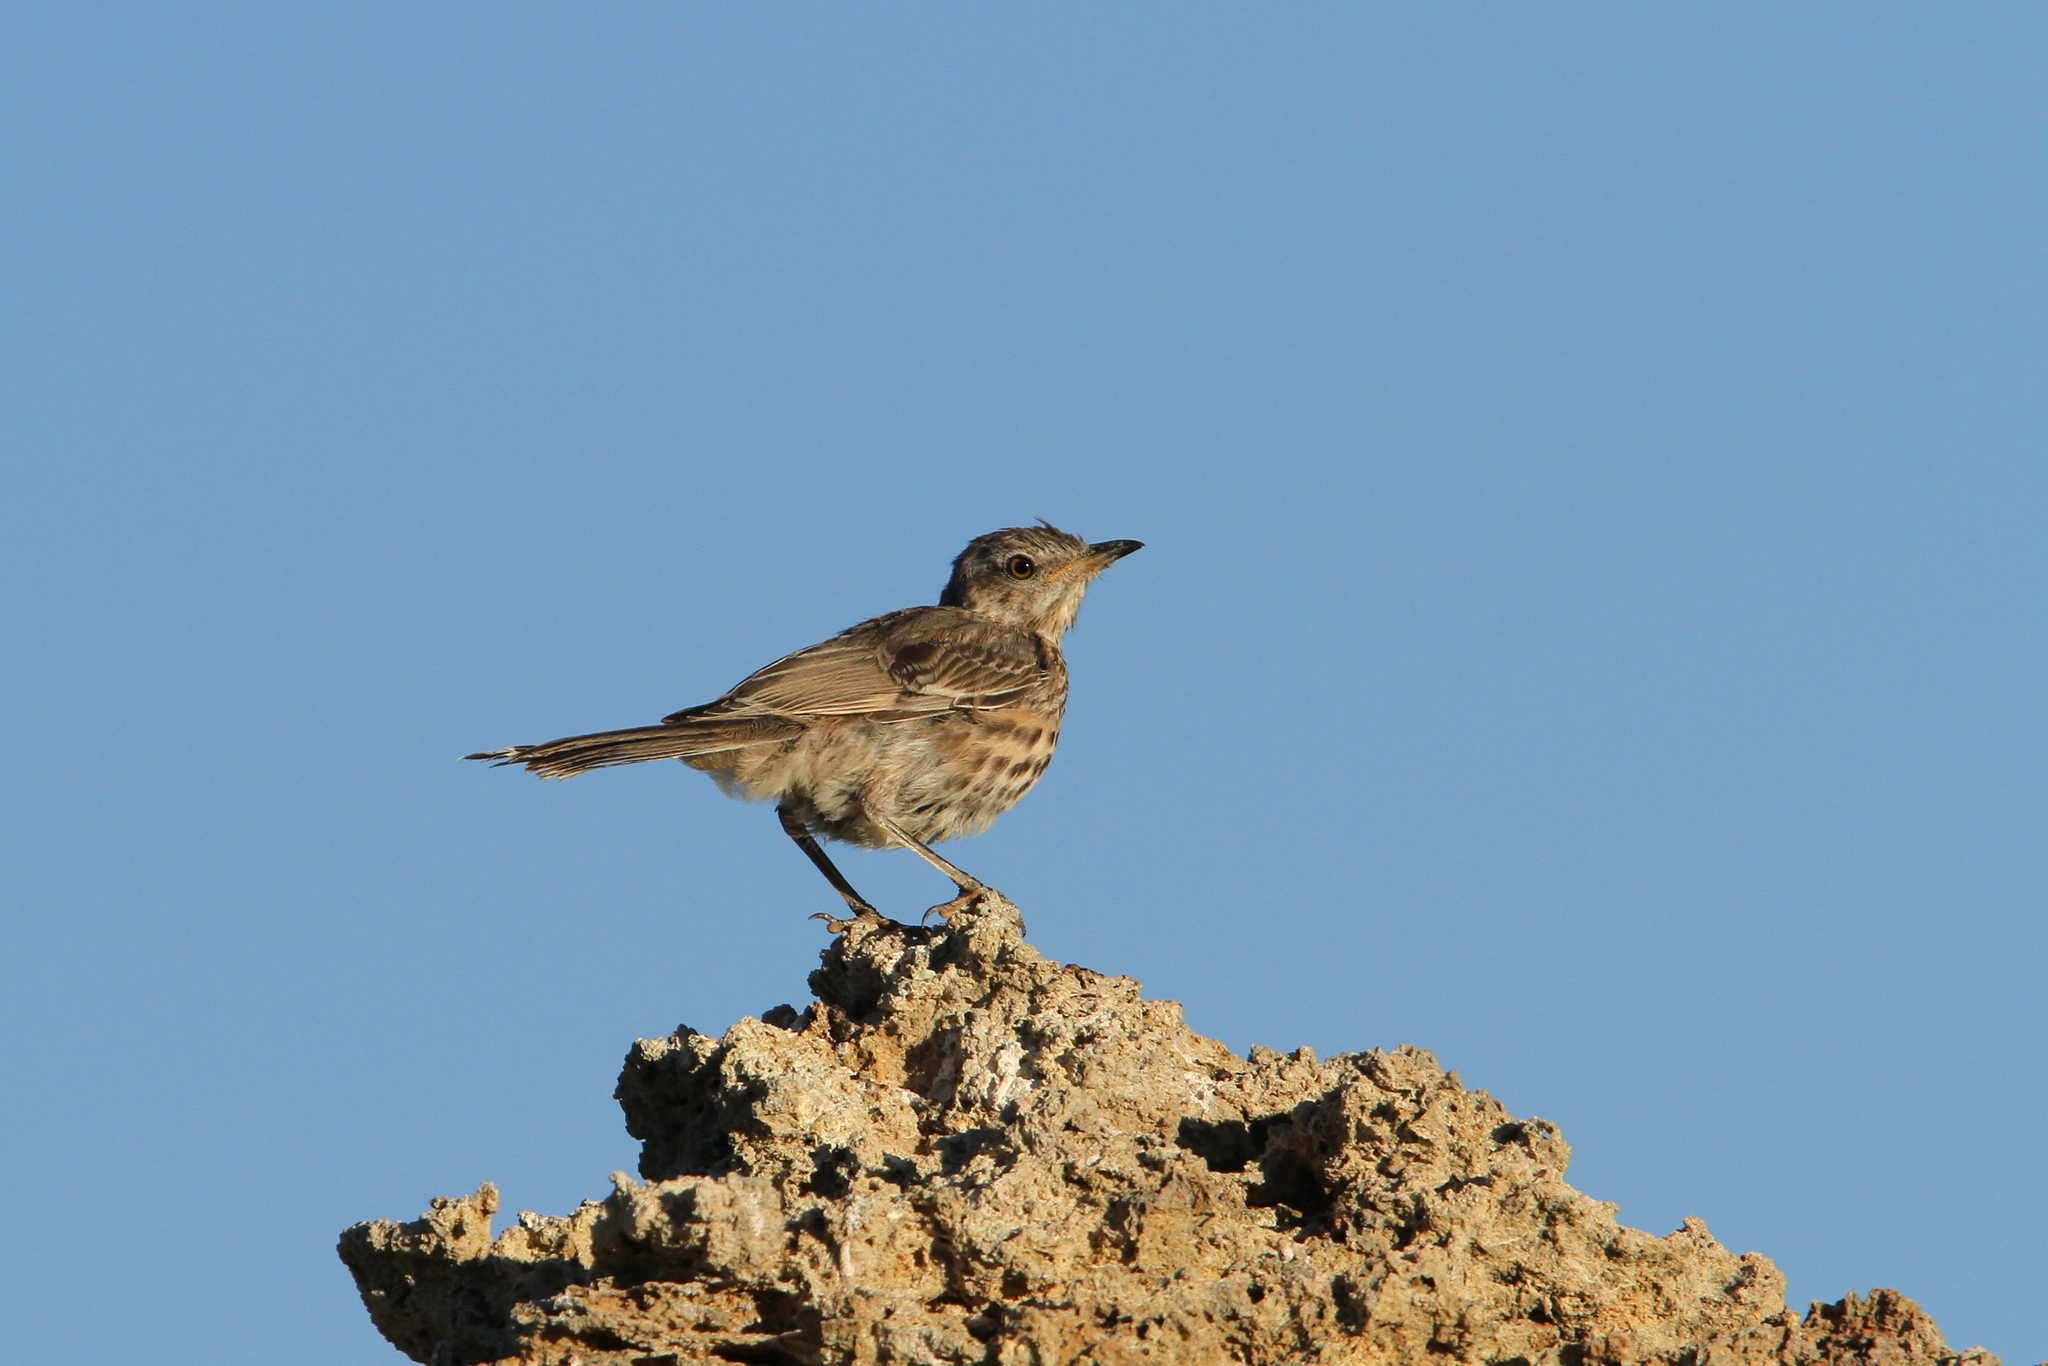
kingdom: Animalia
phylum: Chordata
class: Aves
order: Passeriformes
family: Mimidae
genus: Oreoscoptes
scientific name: Oreoscoptes montanus
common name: Sage thrasher
